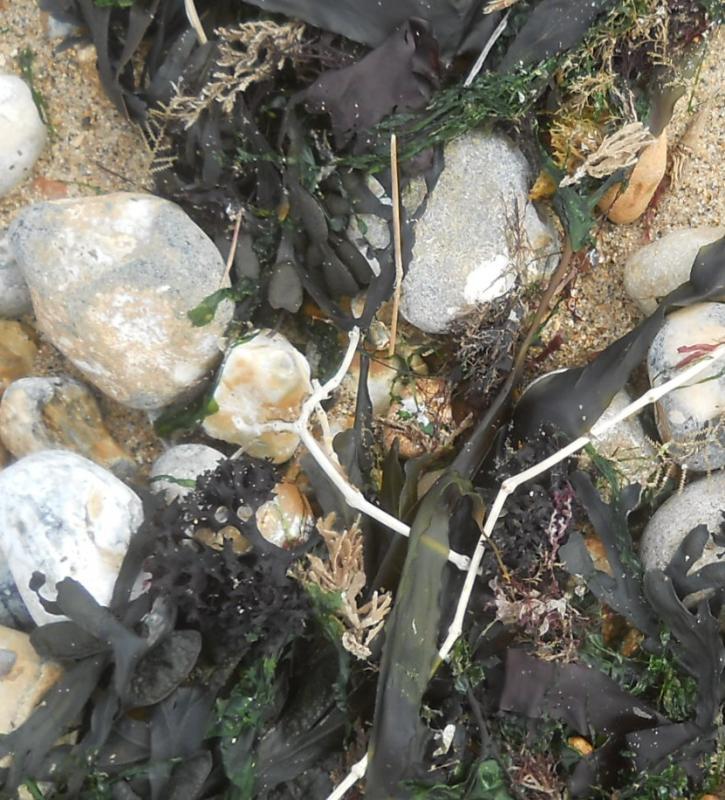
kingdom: Plantae
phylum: Rhodophyta
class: Florideophyceae
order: Gigartinales
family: Gigartinaceae
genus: Chondrus
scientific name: Chondrus crispus
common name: Carrageen
